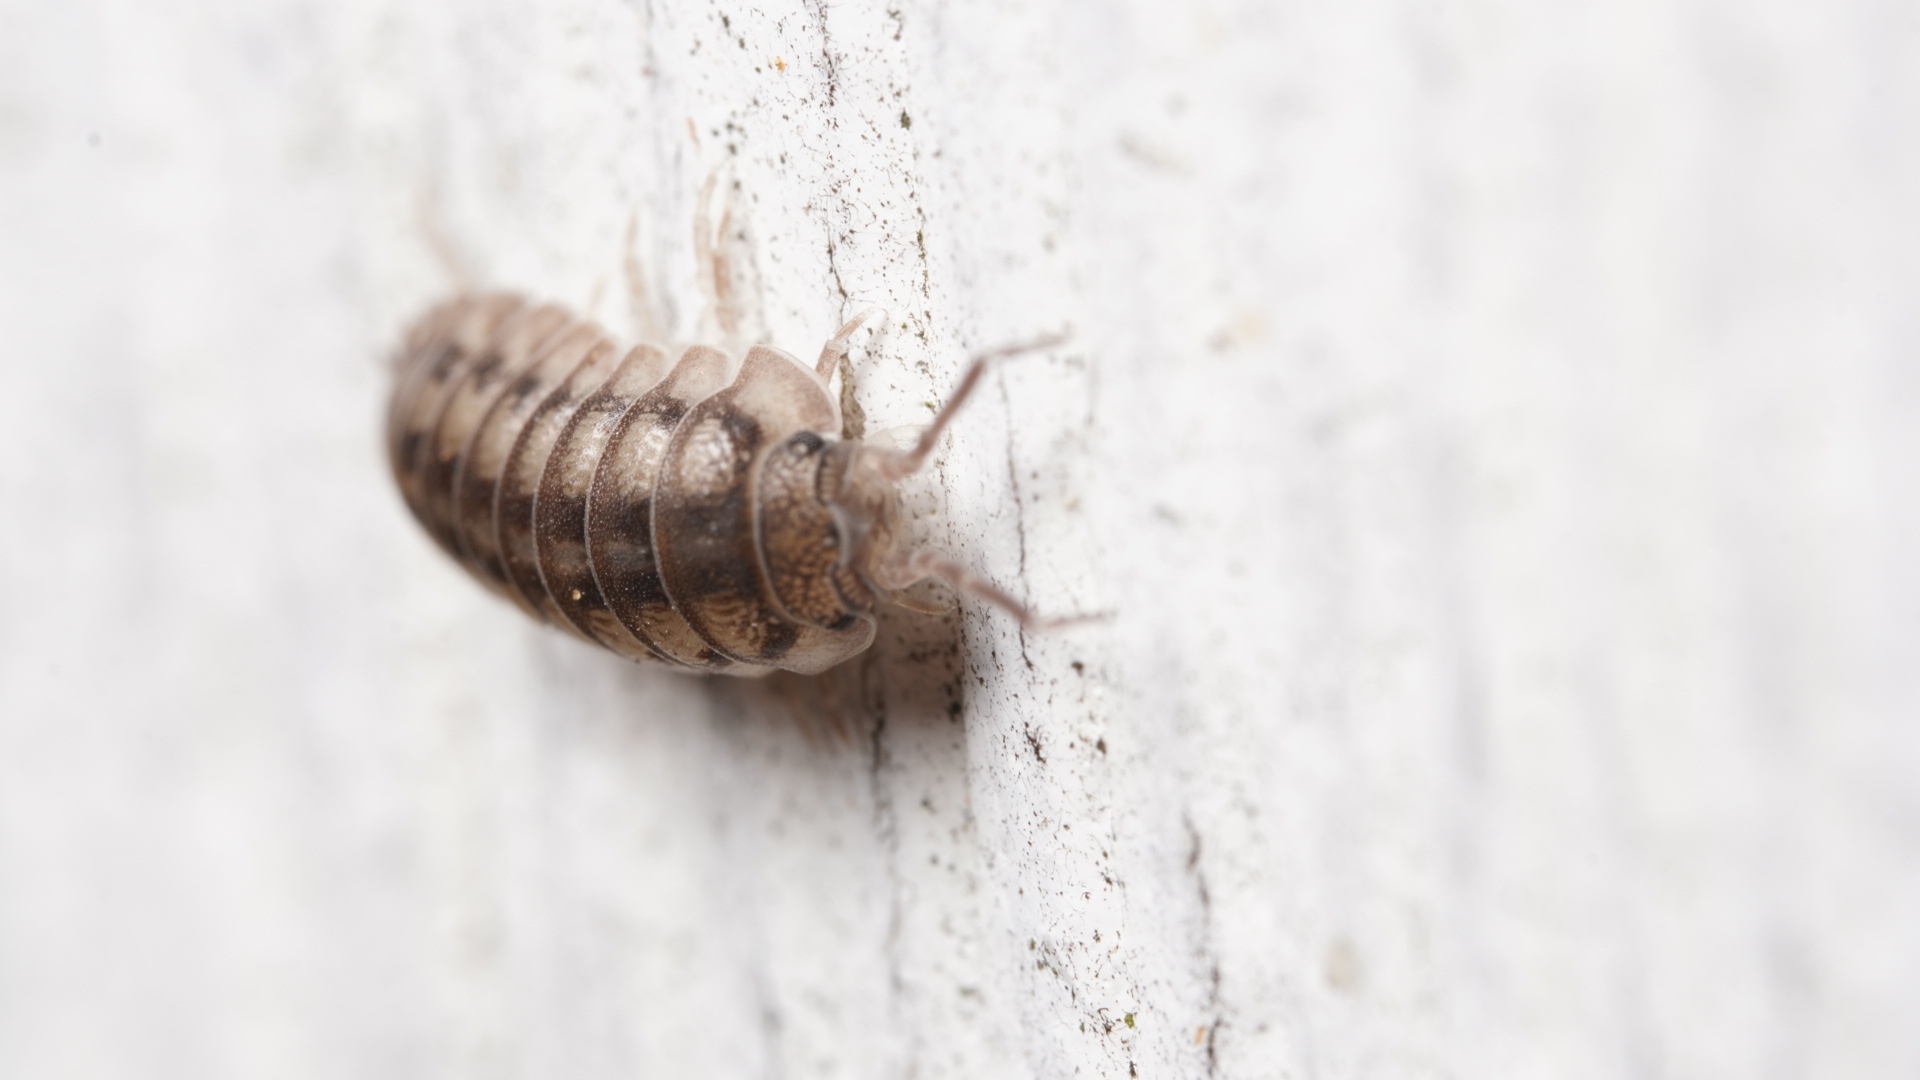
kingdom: Animalia
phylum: Arthropoda
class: Malacostraca
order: Isopoda
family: Armadillidiidae
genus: Armadillidium
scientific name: Armadillidium nasatum
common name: Isopod
